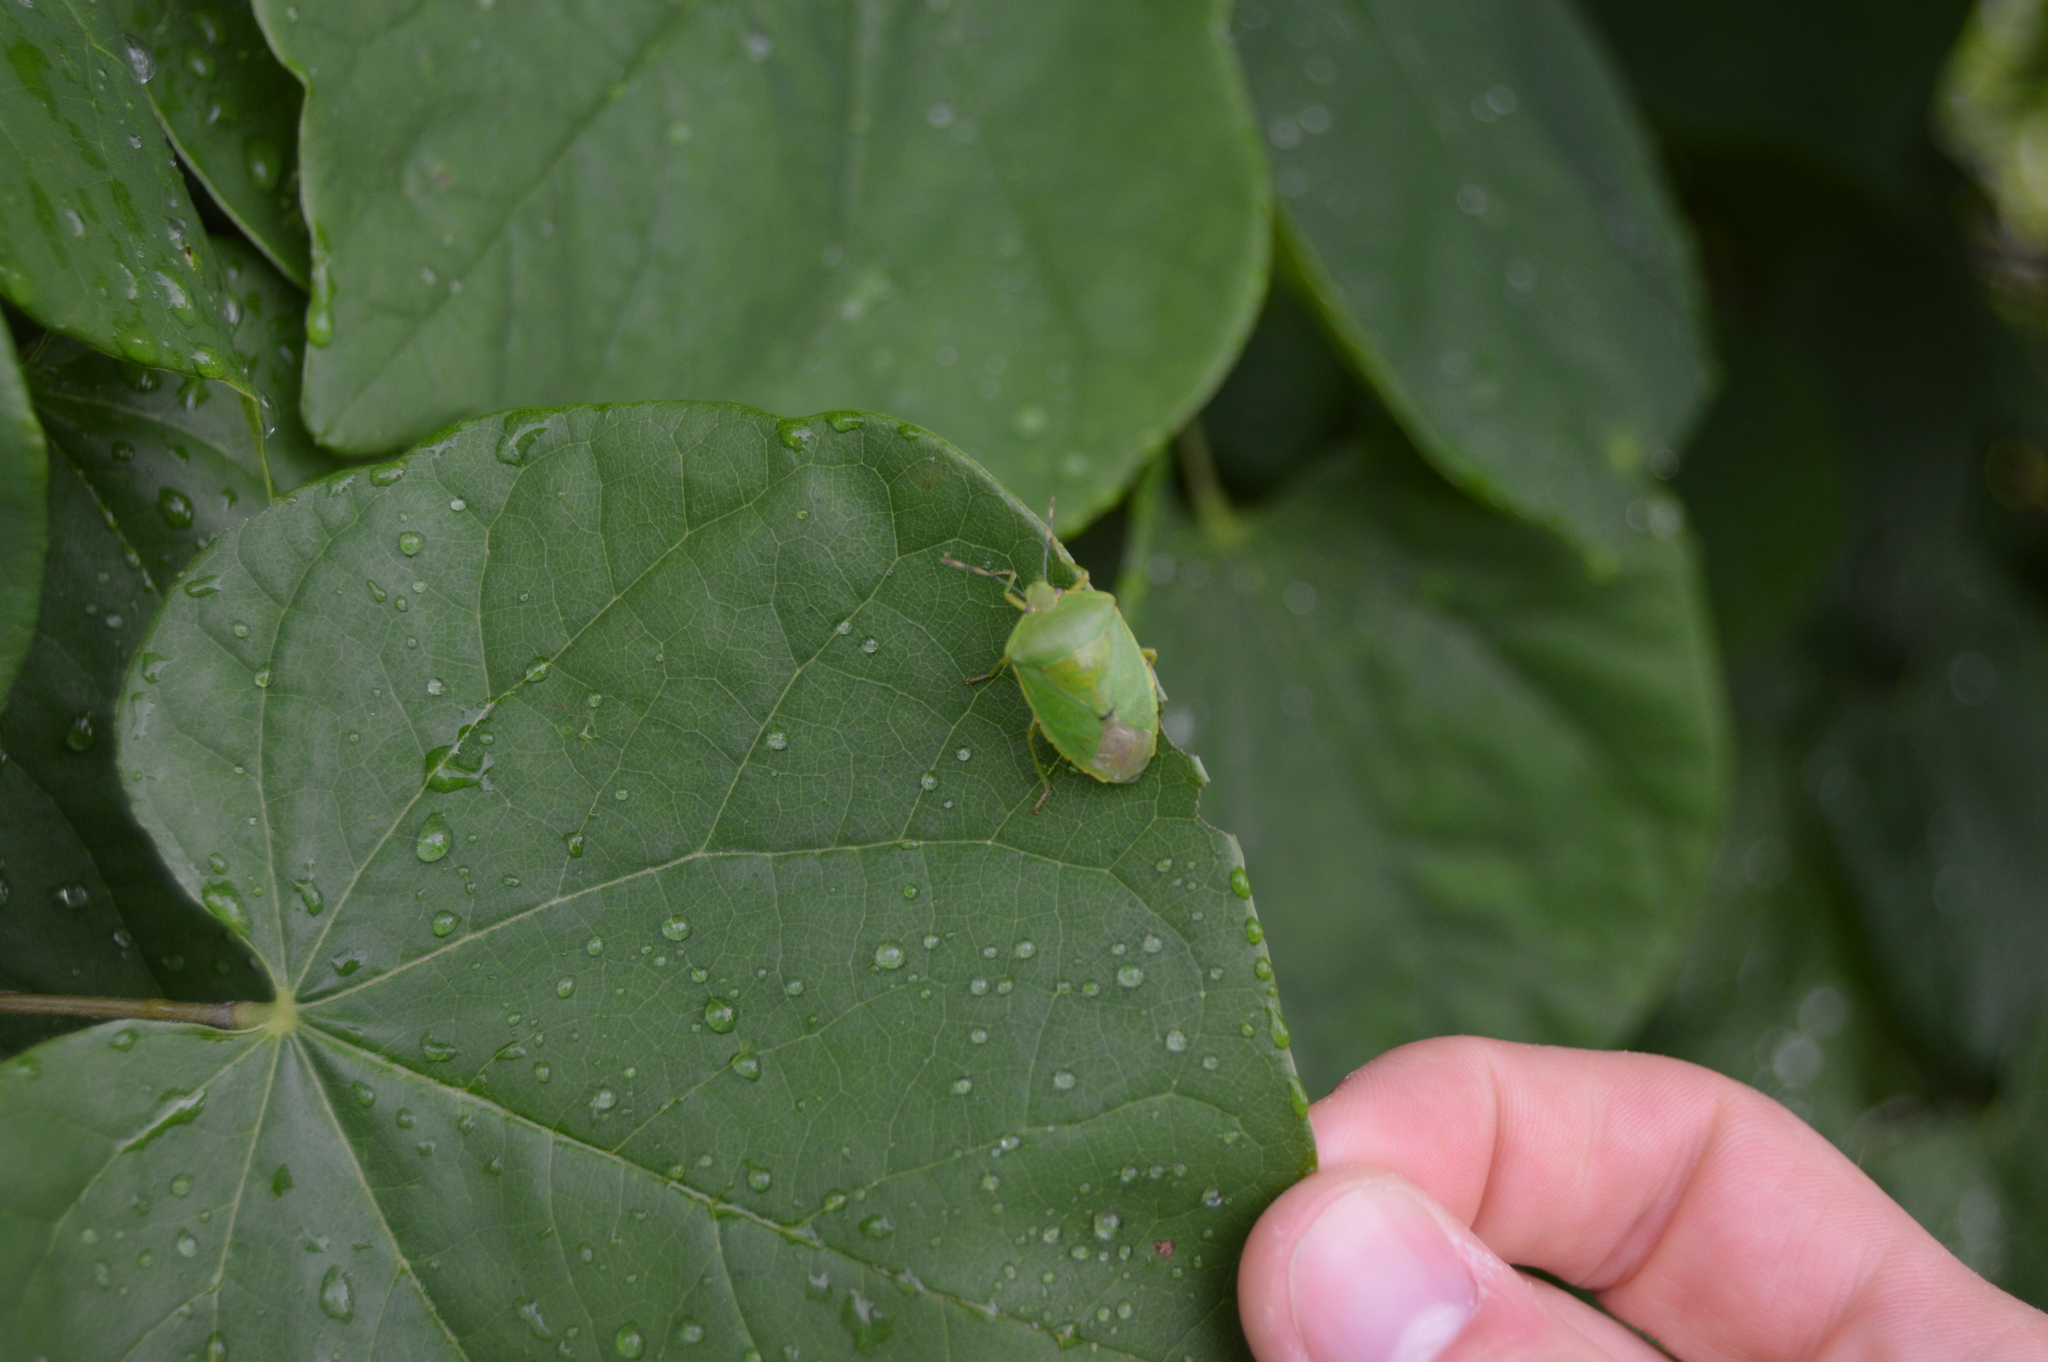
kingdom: Animalia
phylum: Arthropoda
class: Insecta
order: Hemiptera
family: Pentatomidae
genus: Chinavia
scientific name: Chinavia hilaris
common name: Green stink bug
